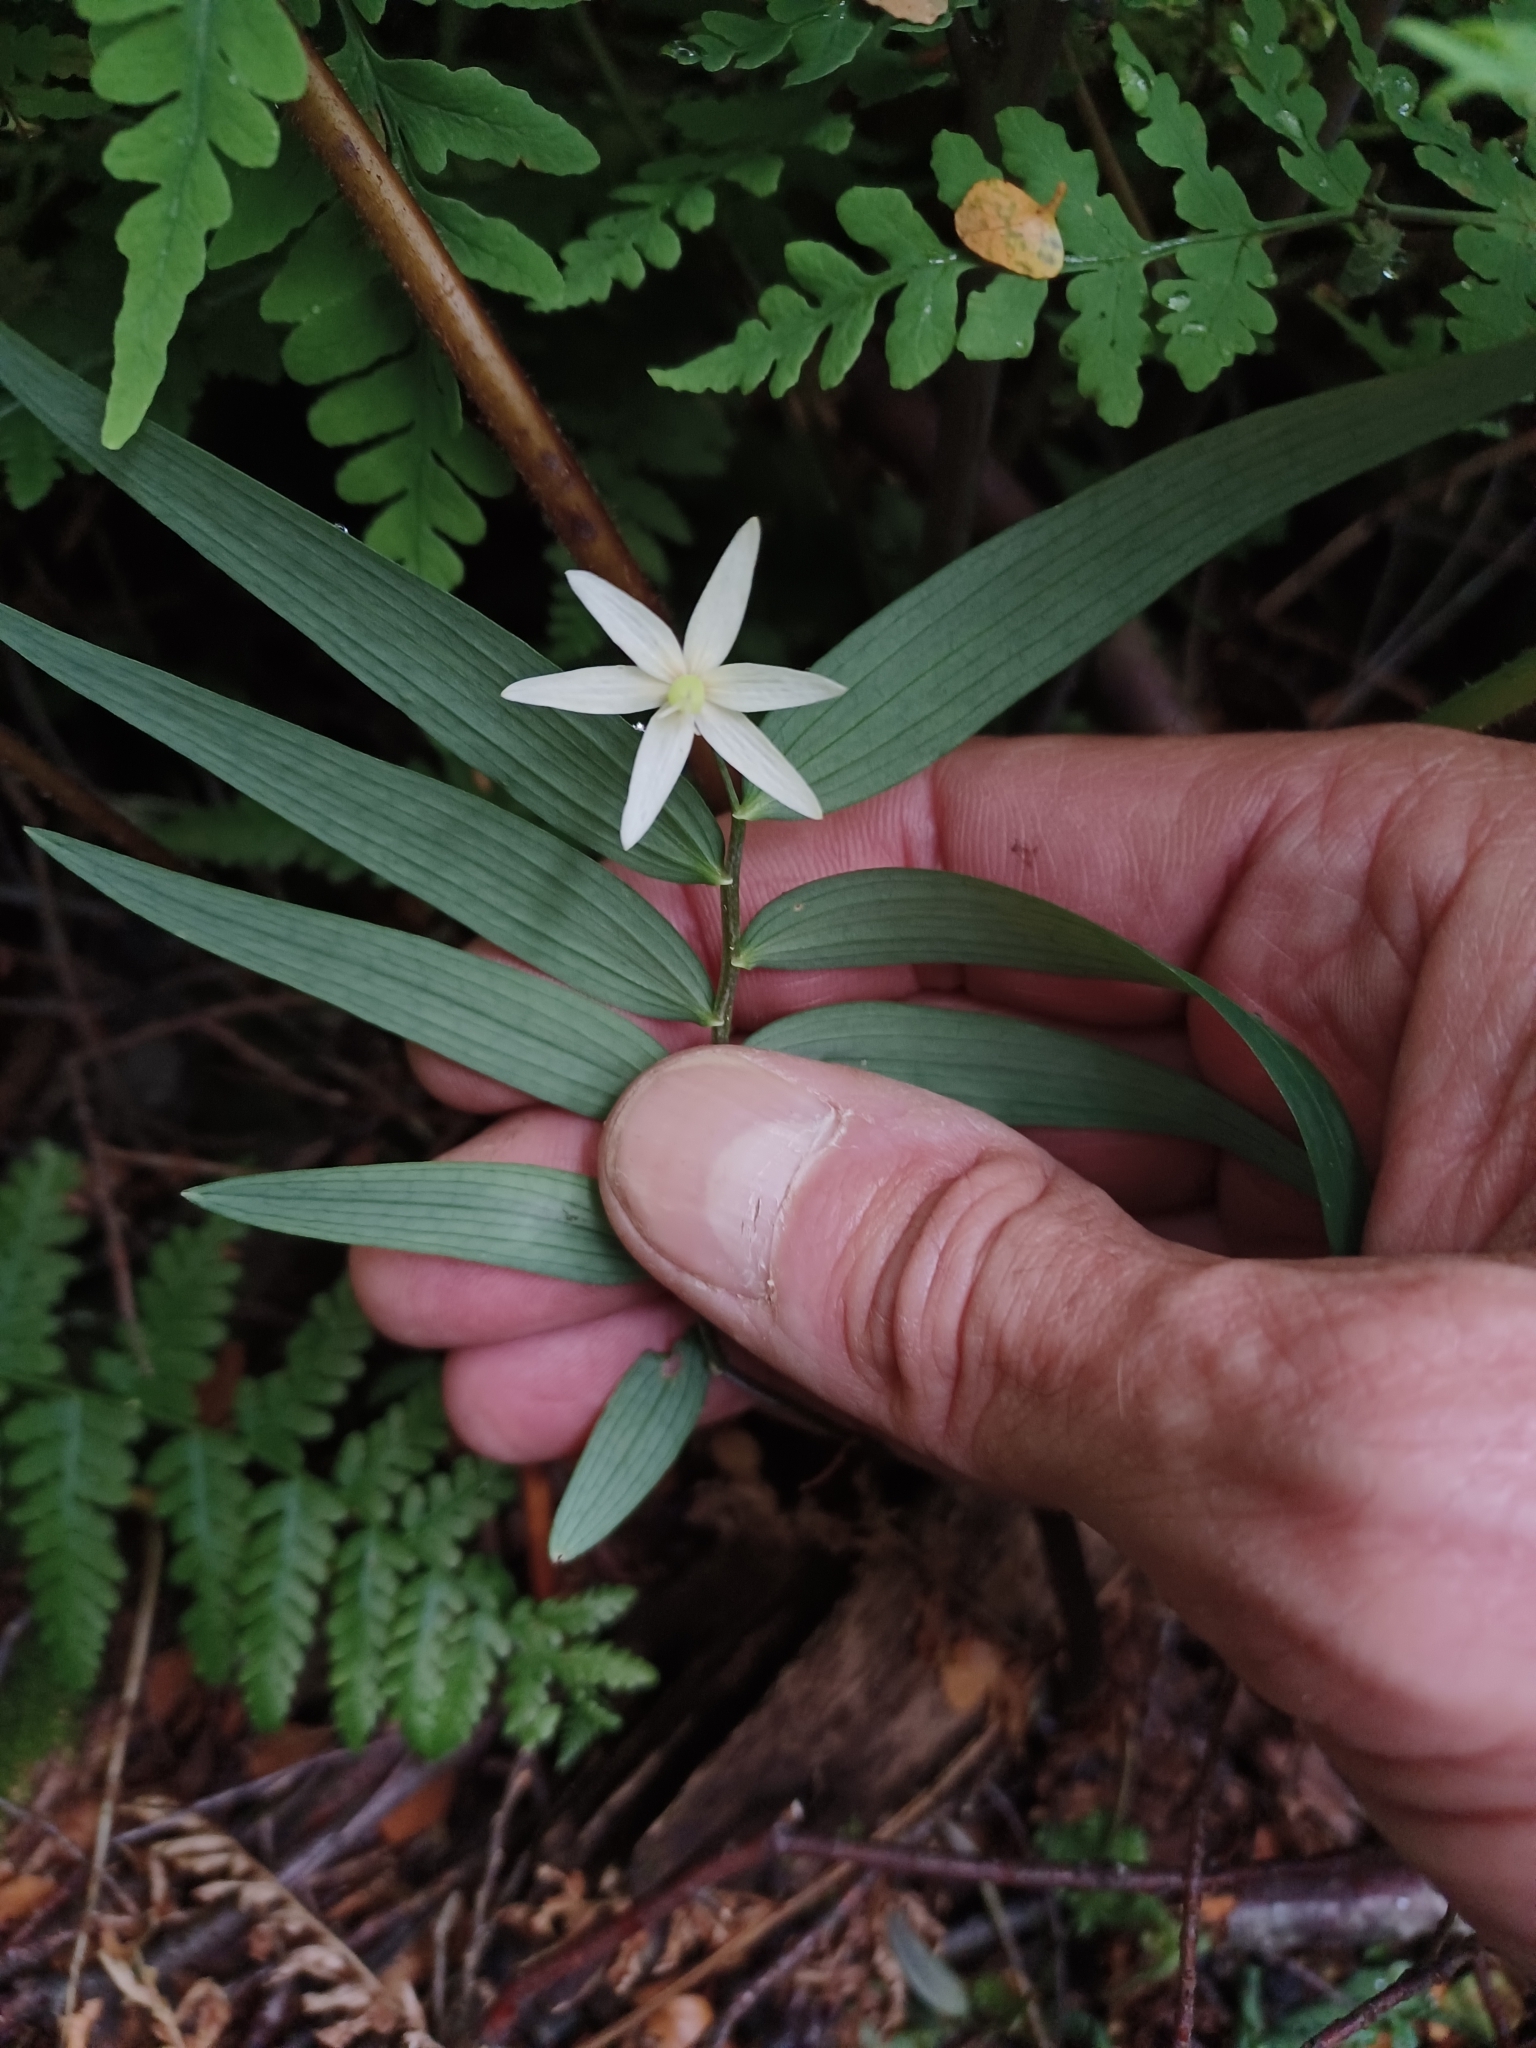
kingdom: Plantae
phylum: Tracheophyta
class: Liliopsida
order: Liliales
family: Alstroemeriaceae
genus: Drymophila
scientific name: Drymophila cyanocarpa
